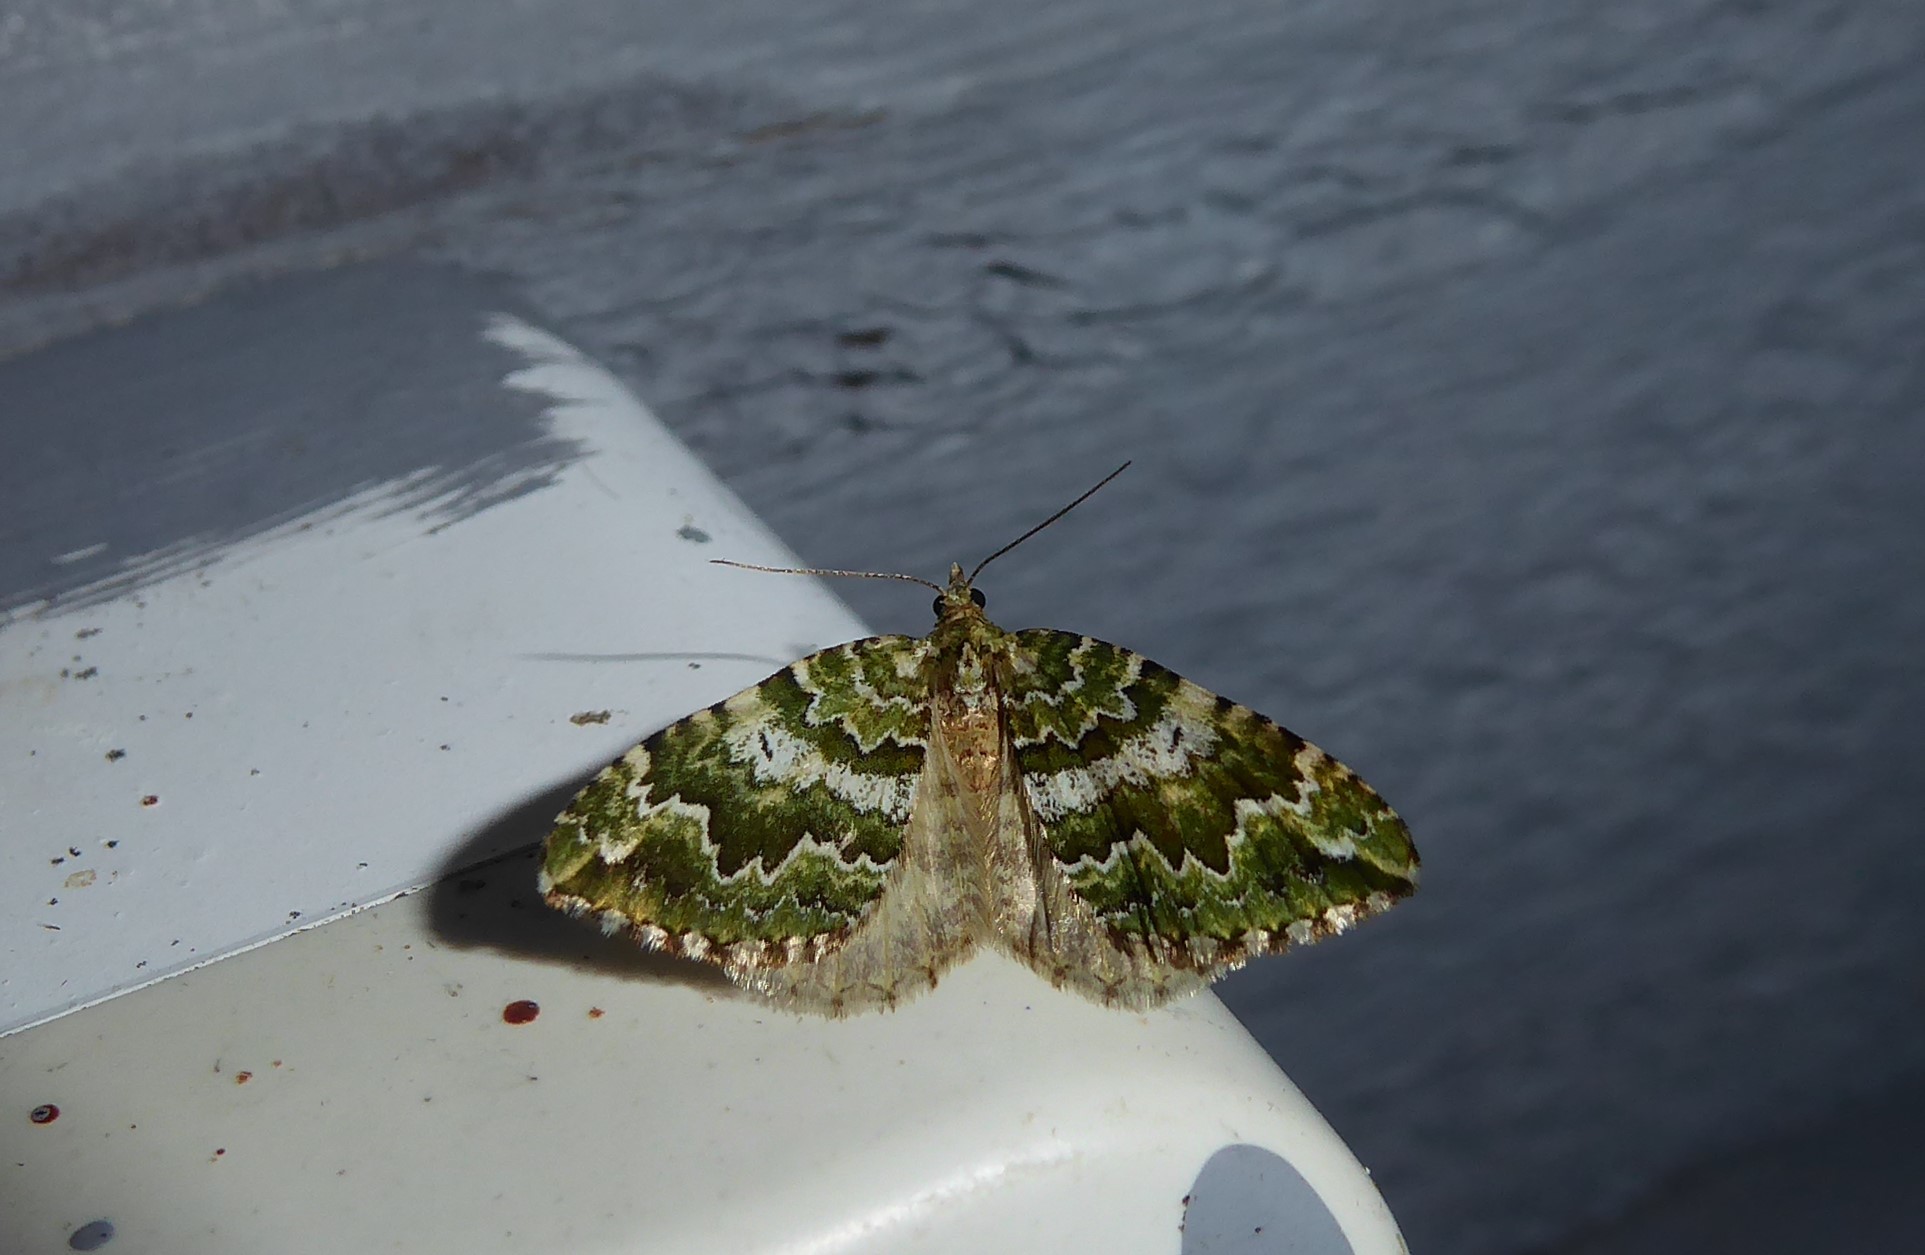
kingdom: Animalia
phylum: Arthropoda
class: Insecta
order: Lepidoptera
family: Geometridae
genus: Asaphodes
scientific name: Asaphodes beata
